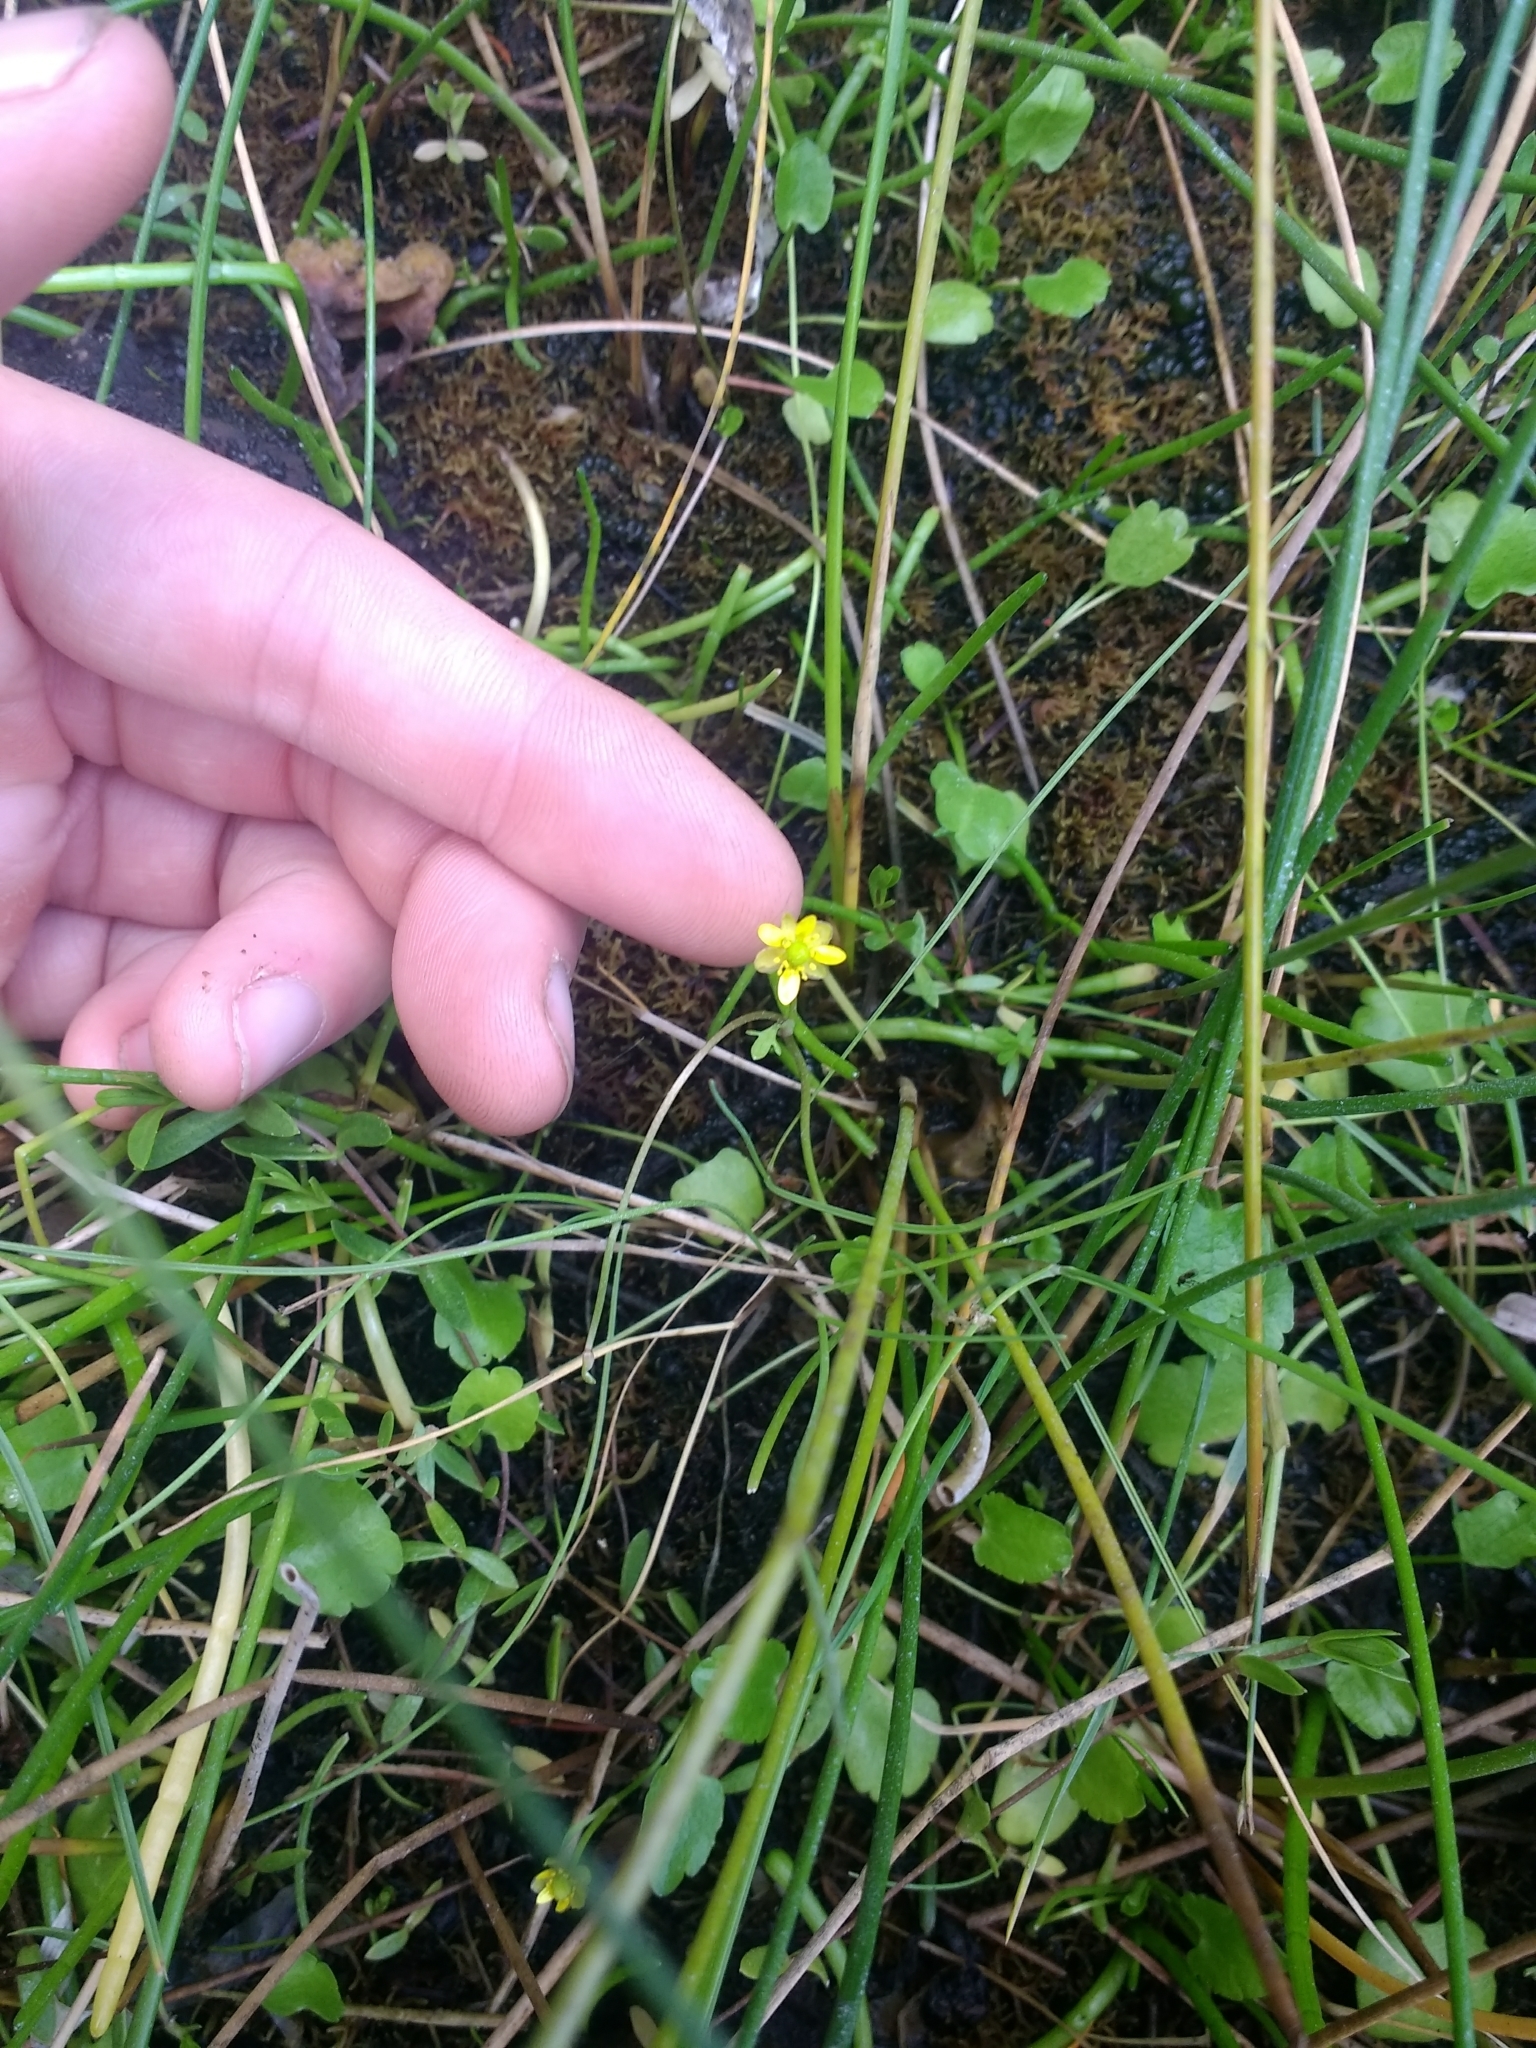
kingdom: Plantae
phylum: Tracheophyta
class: Magnoliopsida
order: Ranunculales
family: Ranunculaceae
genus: Halerpestes
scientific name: Halerpestes cymbalaria
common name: Seaside crowfoot
